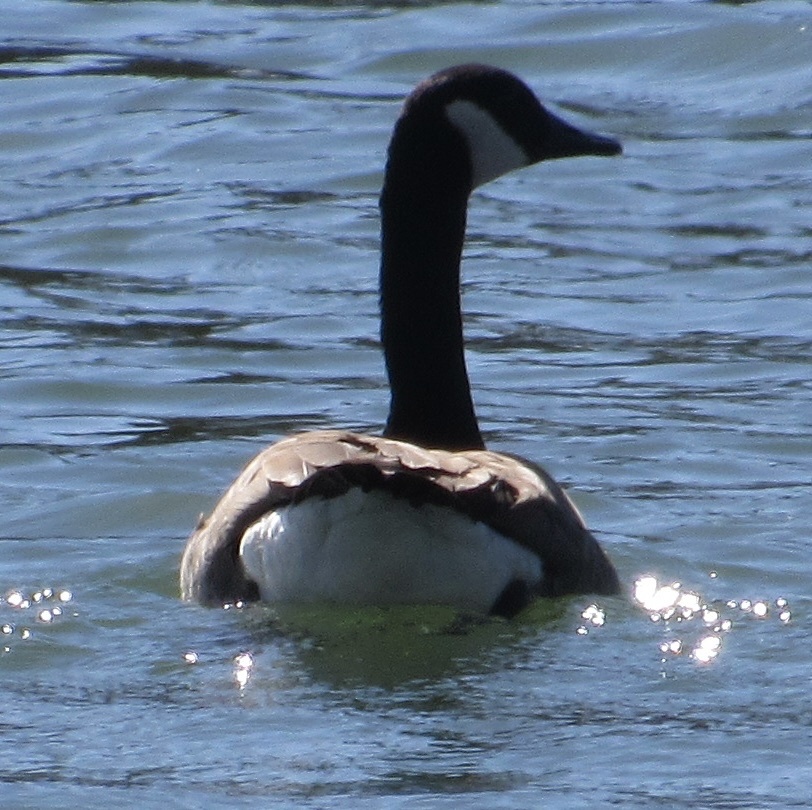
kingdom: Animalia
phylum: Chordata
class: Aves
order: Anseriformes
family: Anatidae
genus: Branta
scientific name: Branta canadensis
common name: Canada goose
